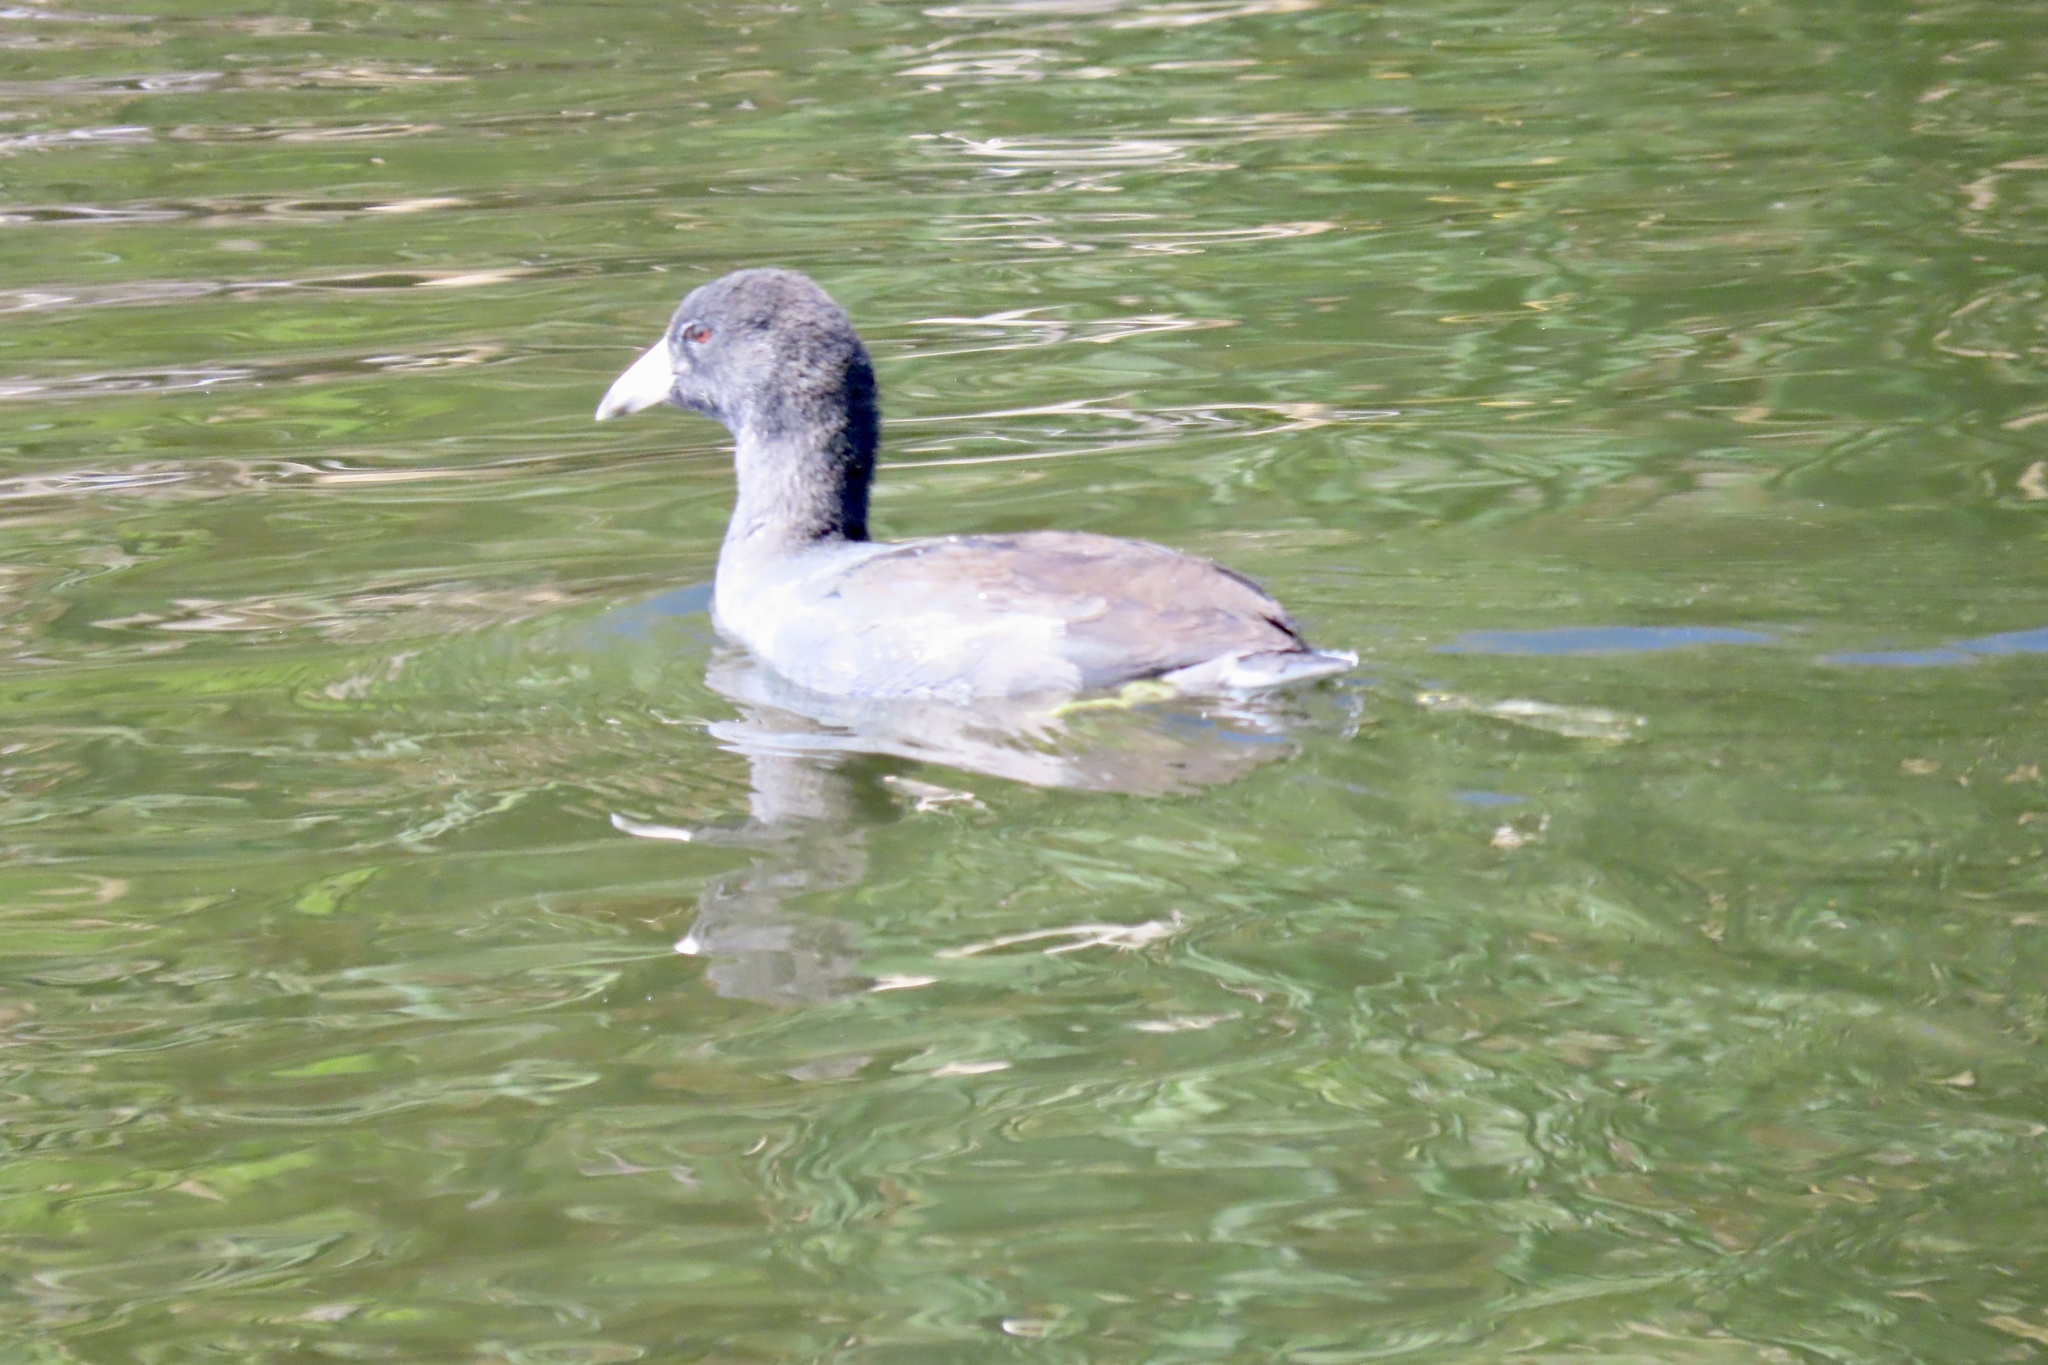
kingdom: Animalia
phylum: Chordata
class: Aves
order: Gruiformes
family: Rallidae
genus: Fulica
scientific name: Fulica americana
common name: American coot
